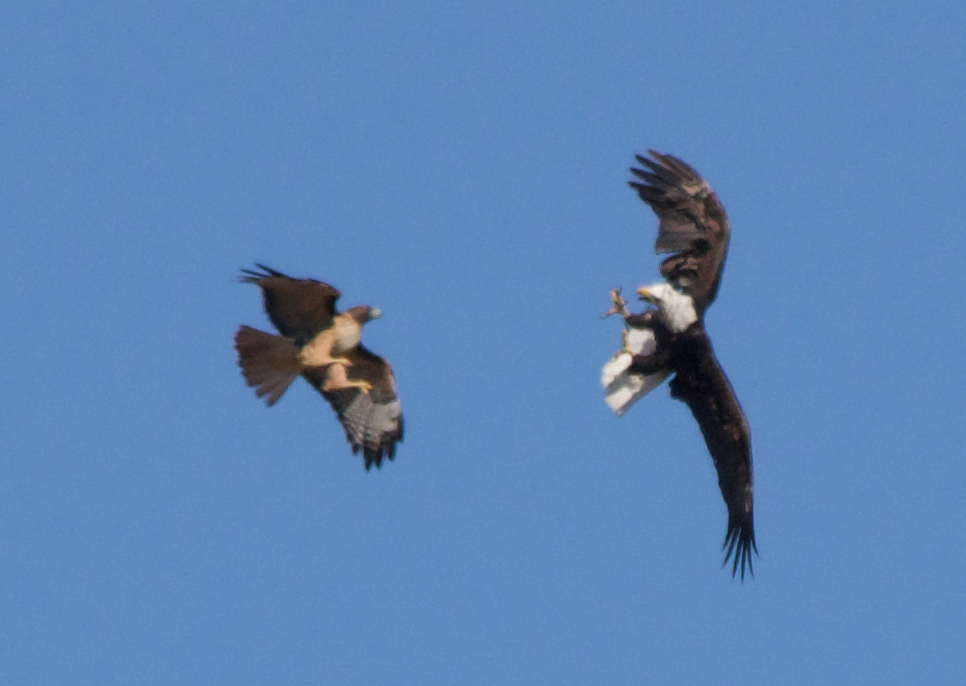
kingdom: Animalia
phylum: Chordata
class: Aves
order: Accipitriformes
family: Accipitridae
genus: Buteo
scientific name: Buteo jamaicensis
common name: Red-tailed hawk
